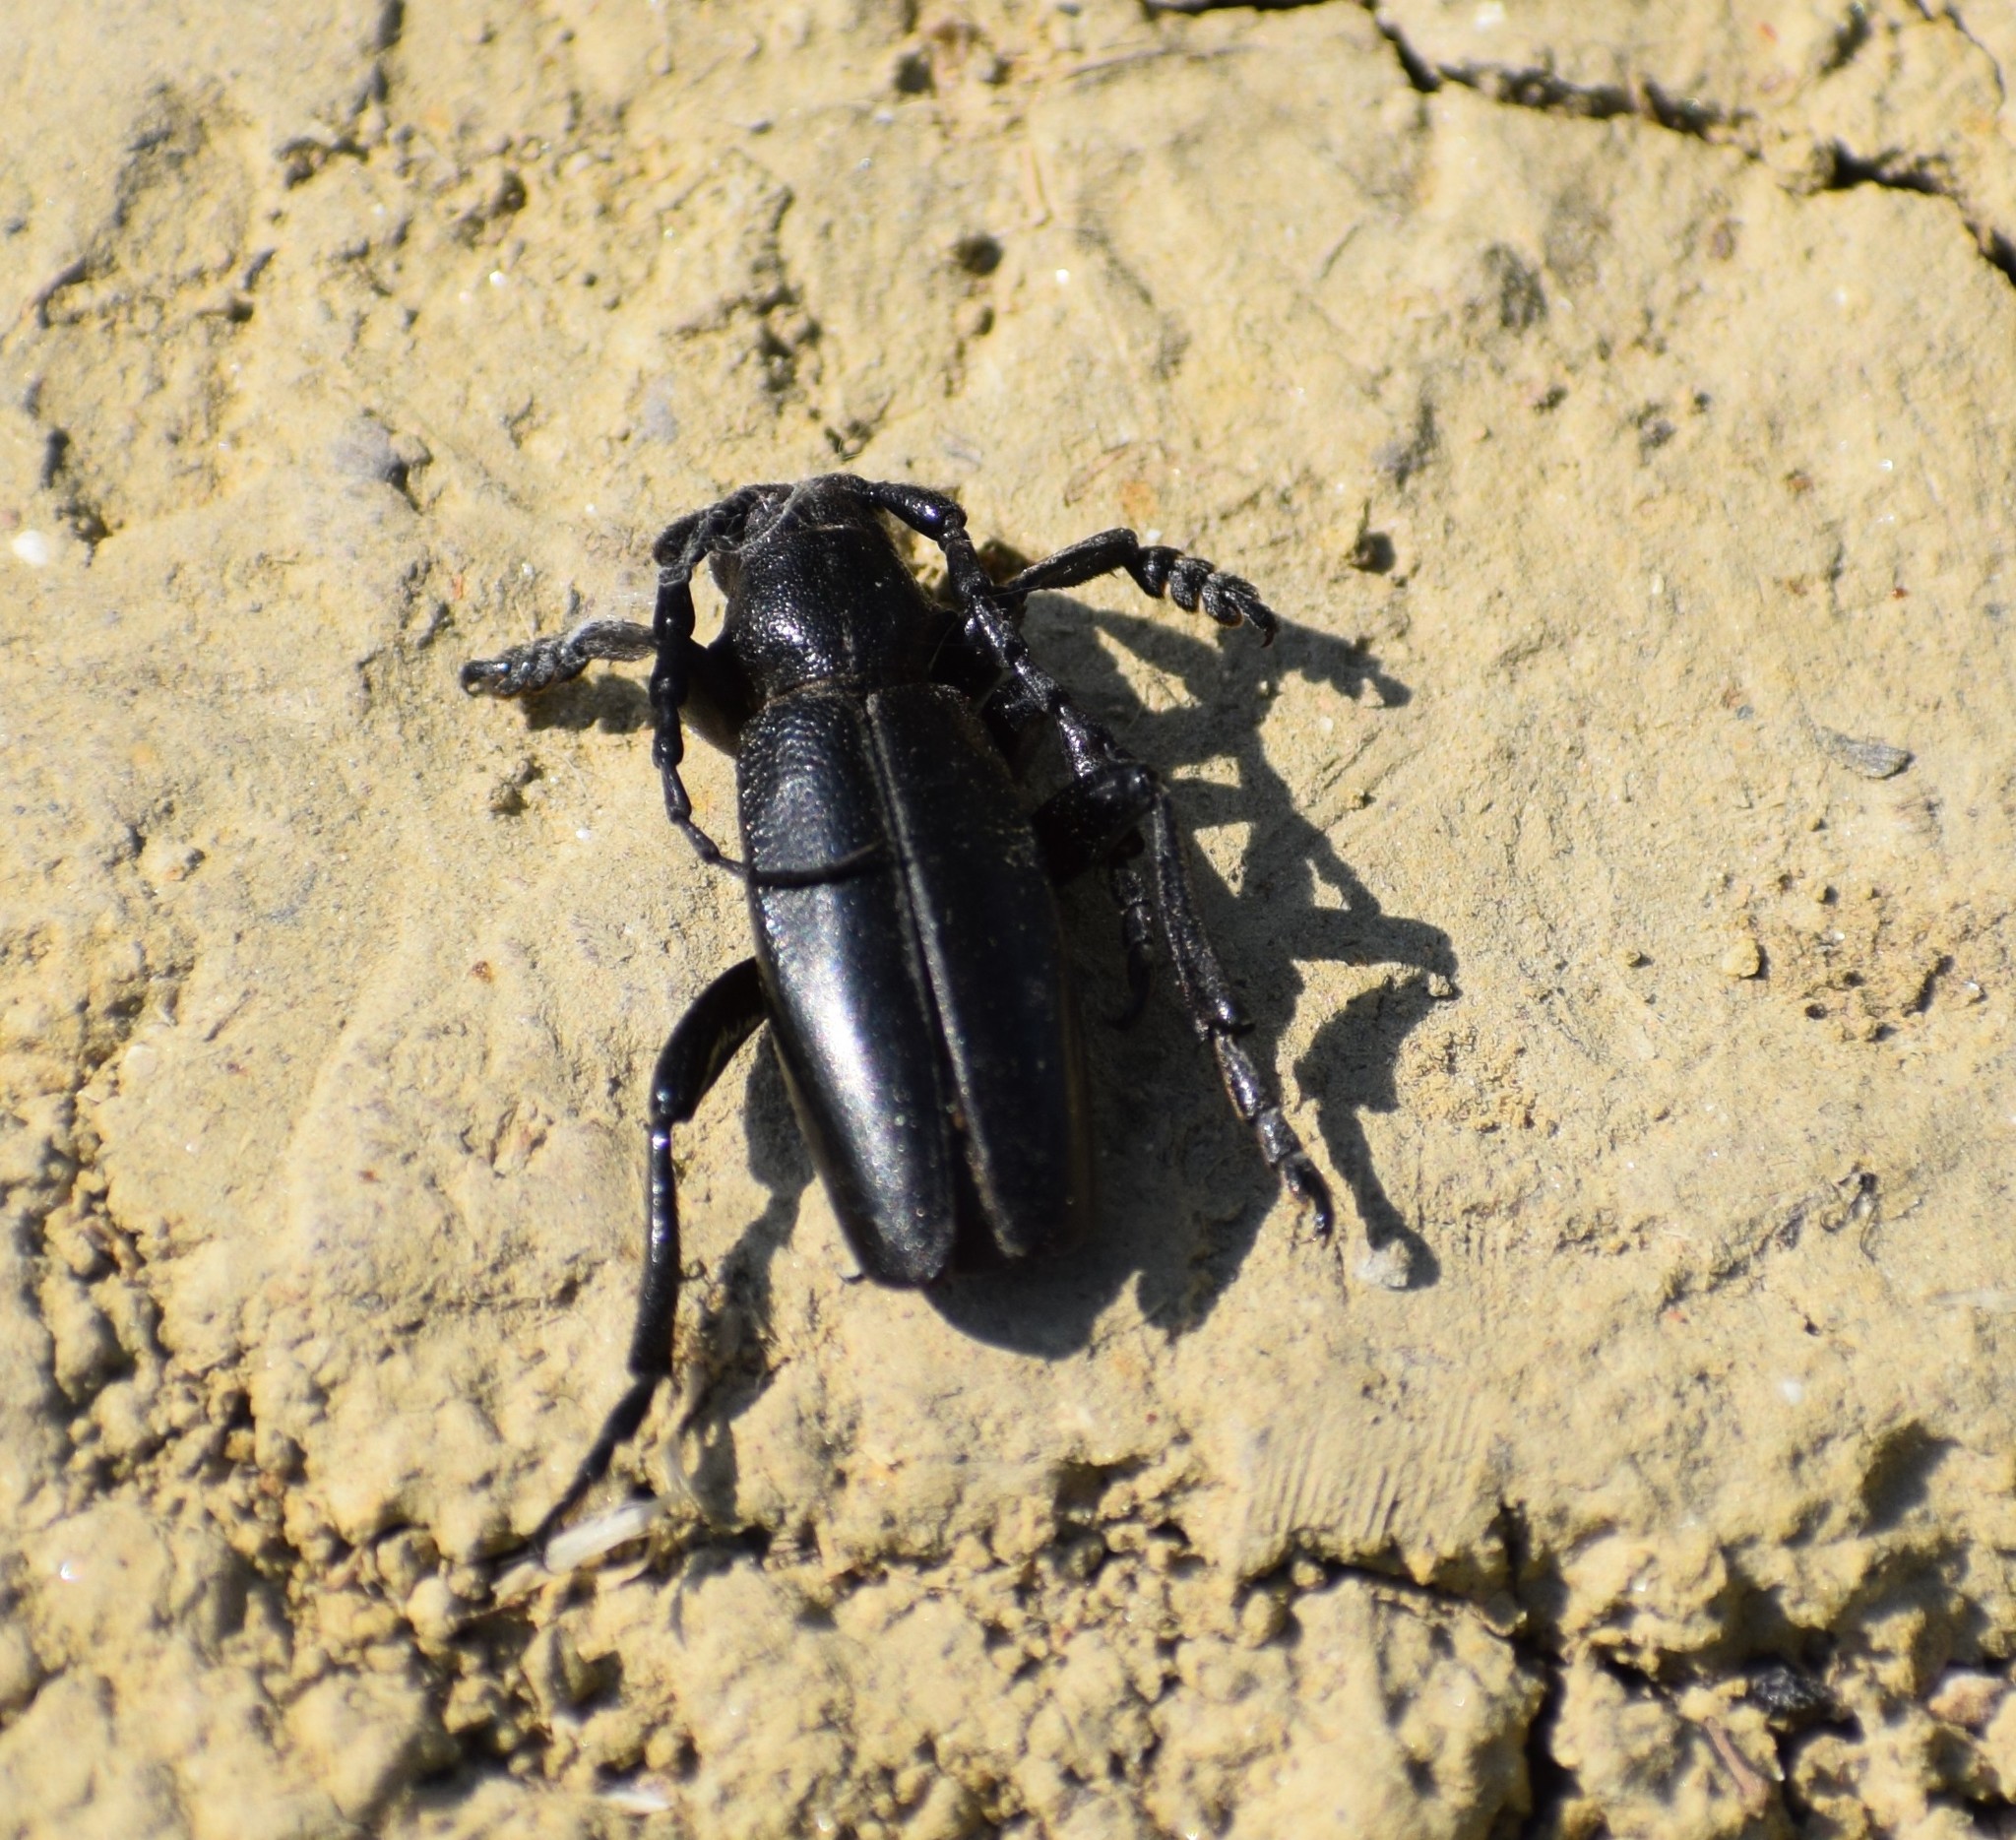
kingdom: Animalia
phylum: Arthropoda
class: Insecta
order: Coleoptera
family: Cerambycidae
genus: Dorcadion
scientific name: Dorcadion aethiops
